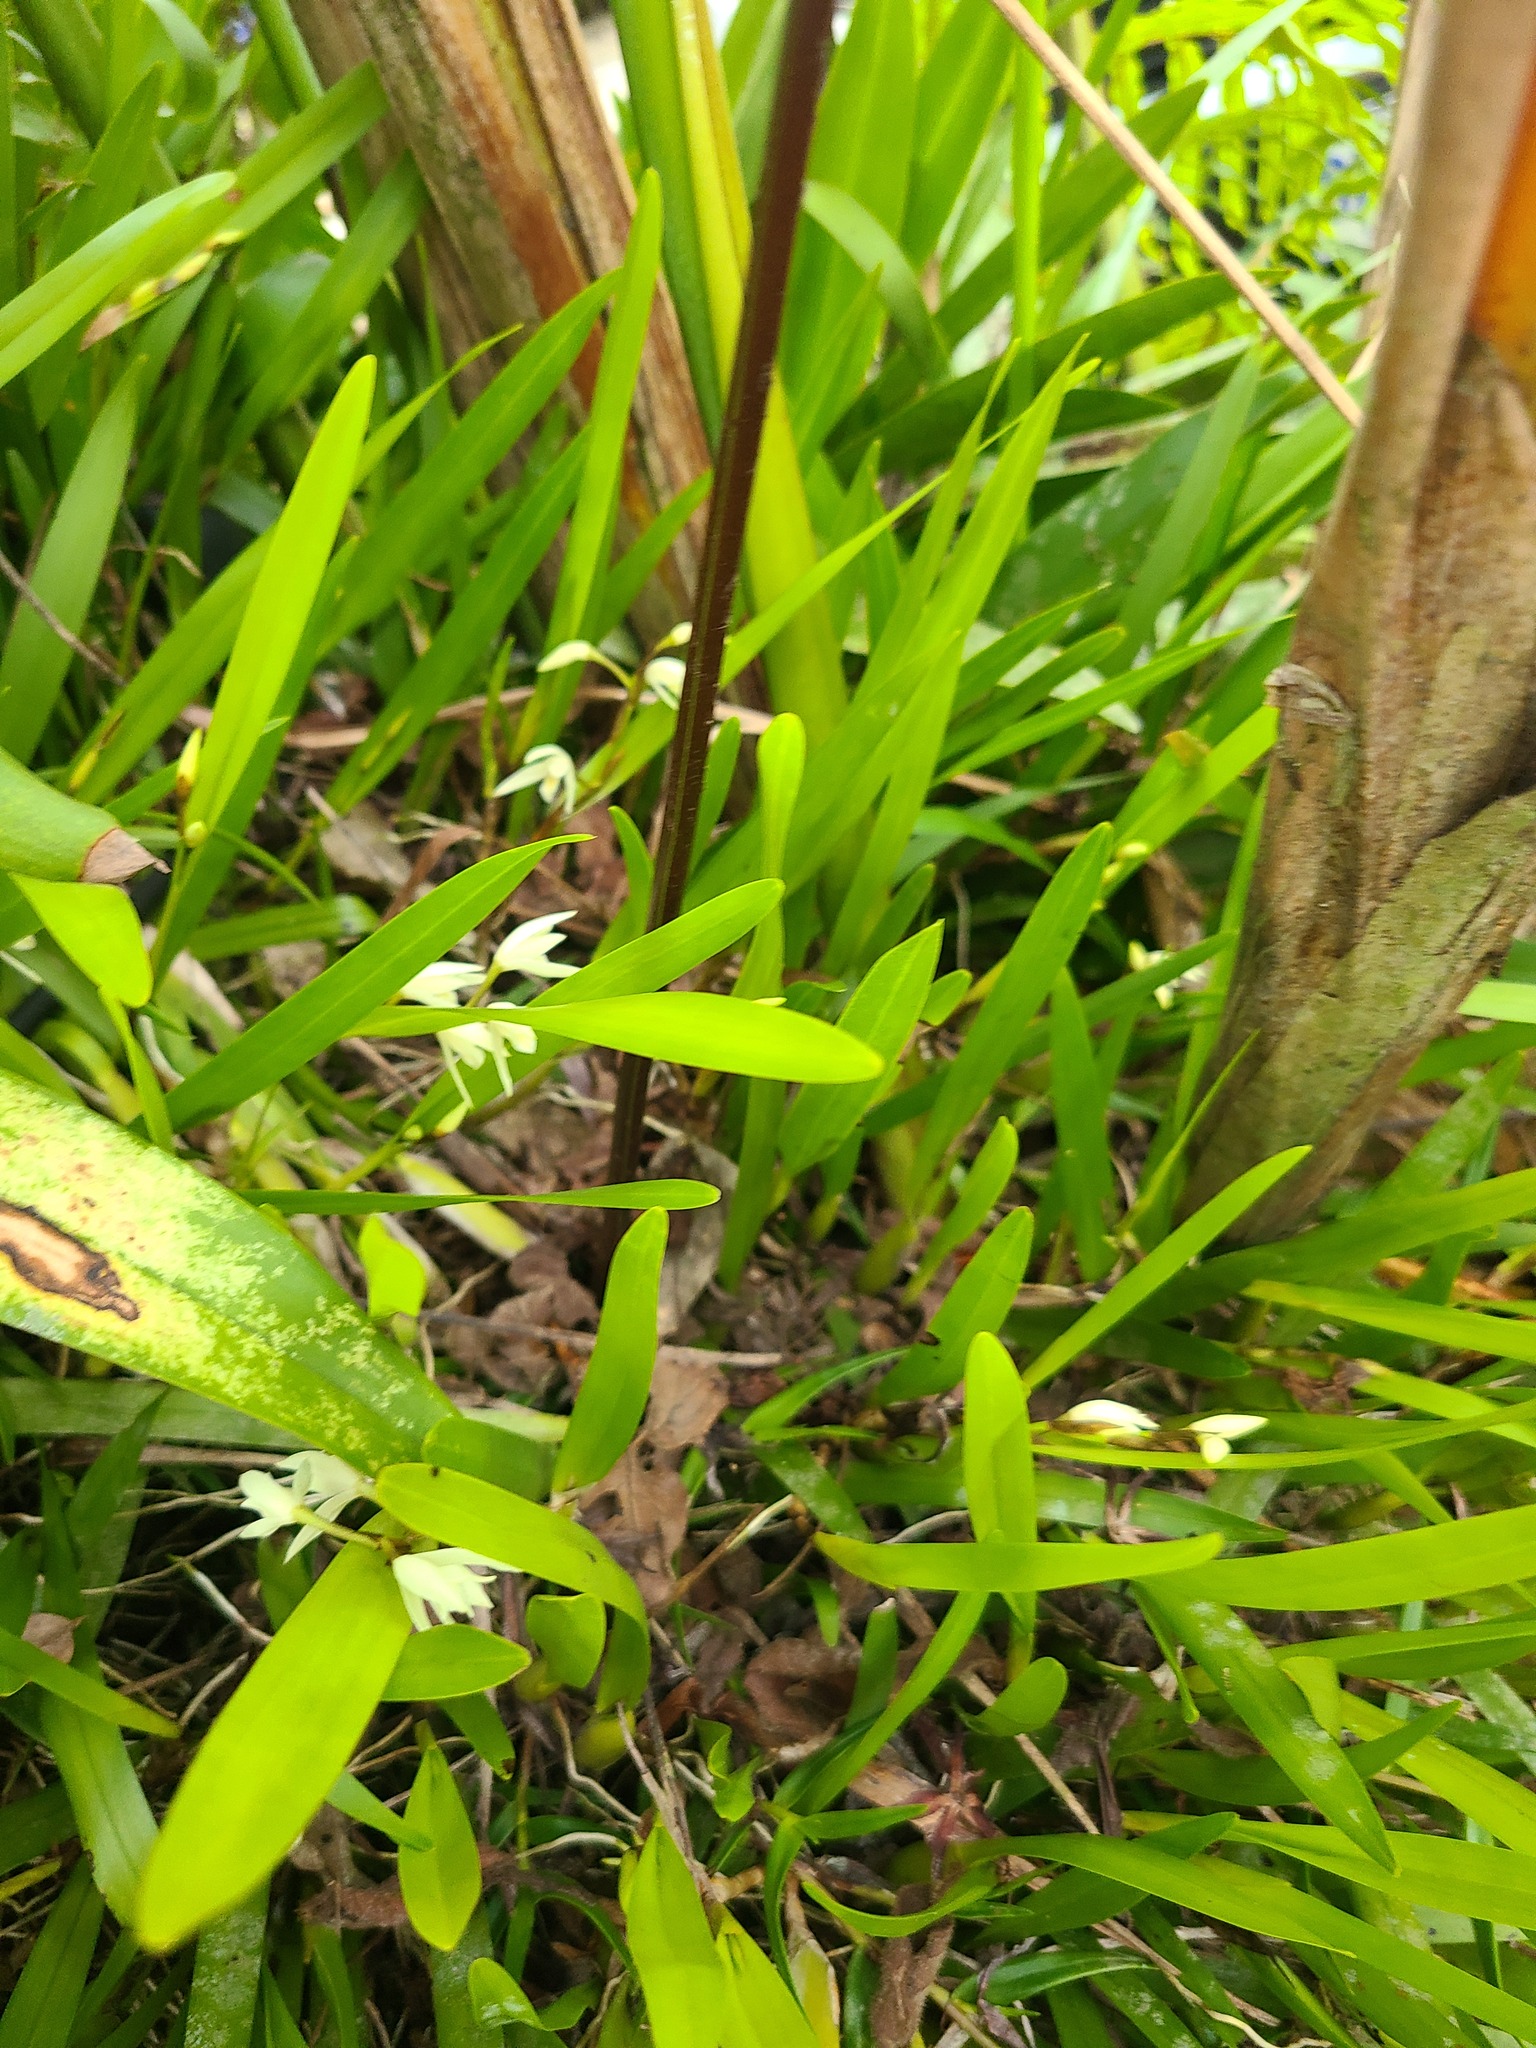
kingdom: Plantae
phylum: Tracheophyta
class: Liliopsida
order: Asparagales
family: Orchidaceae
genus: Nidema
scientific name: Nidema boothii
